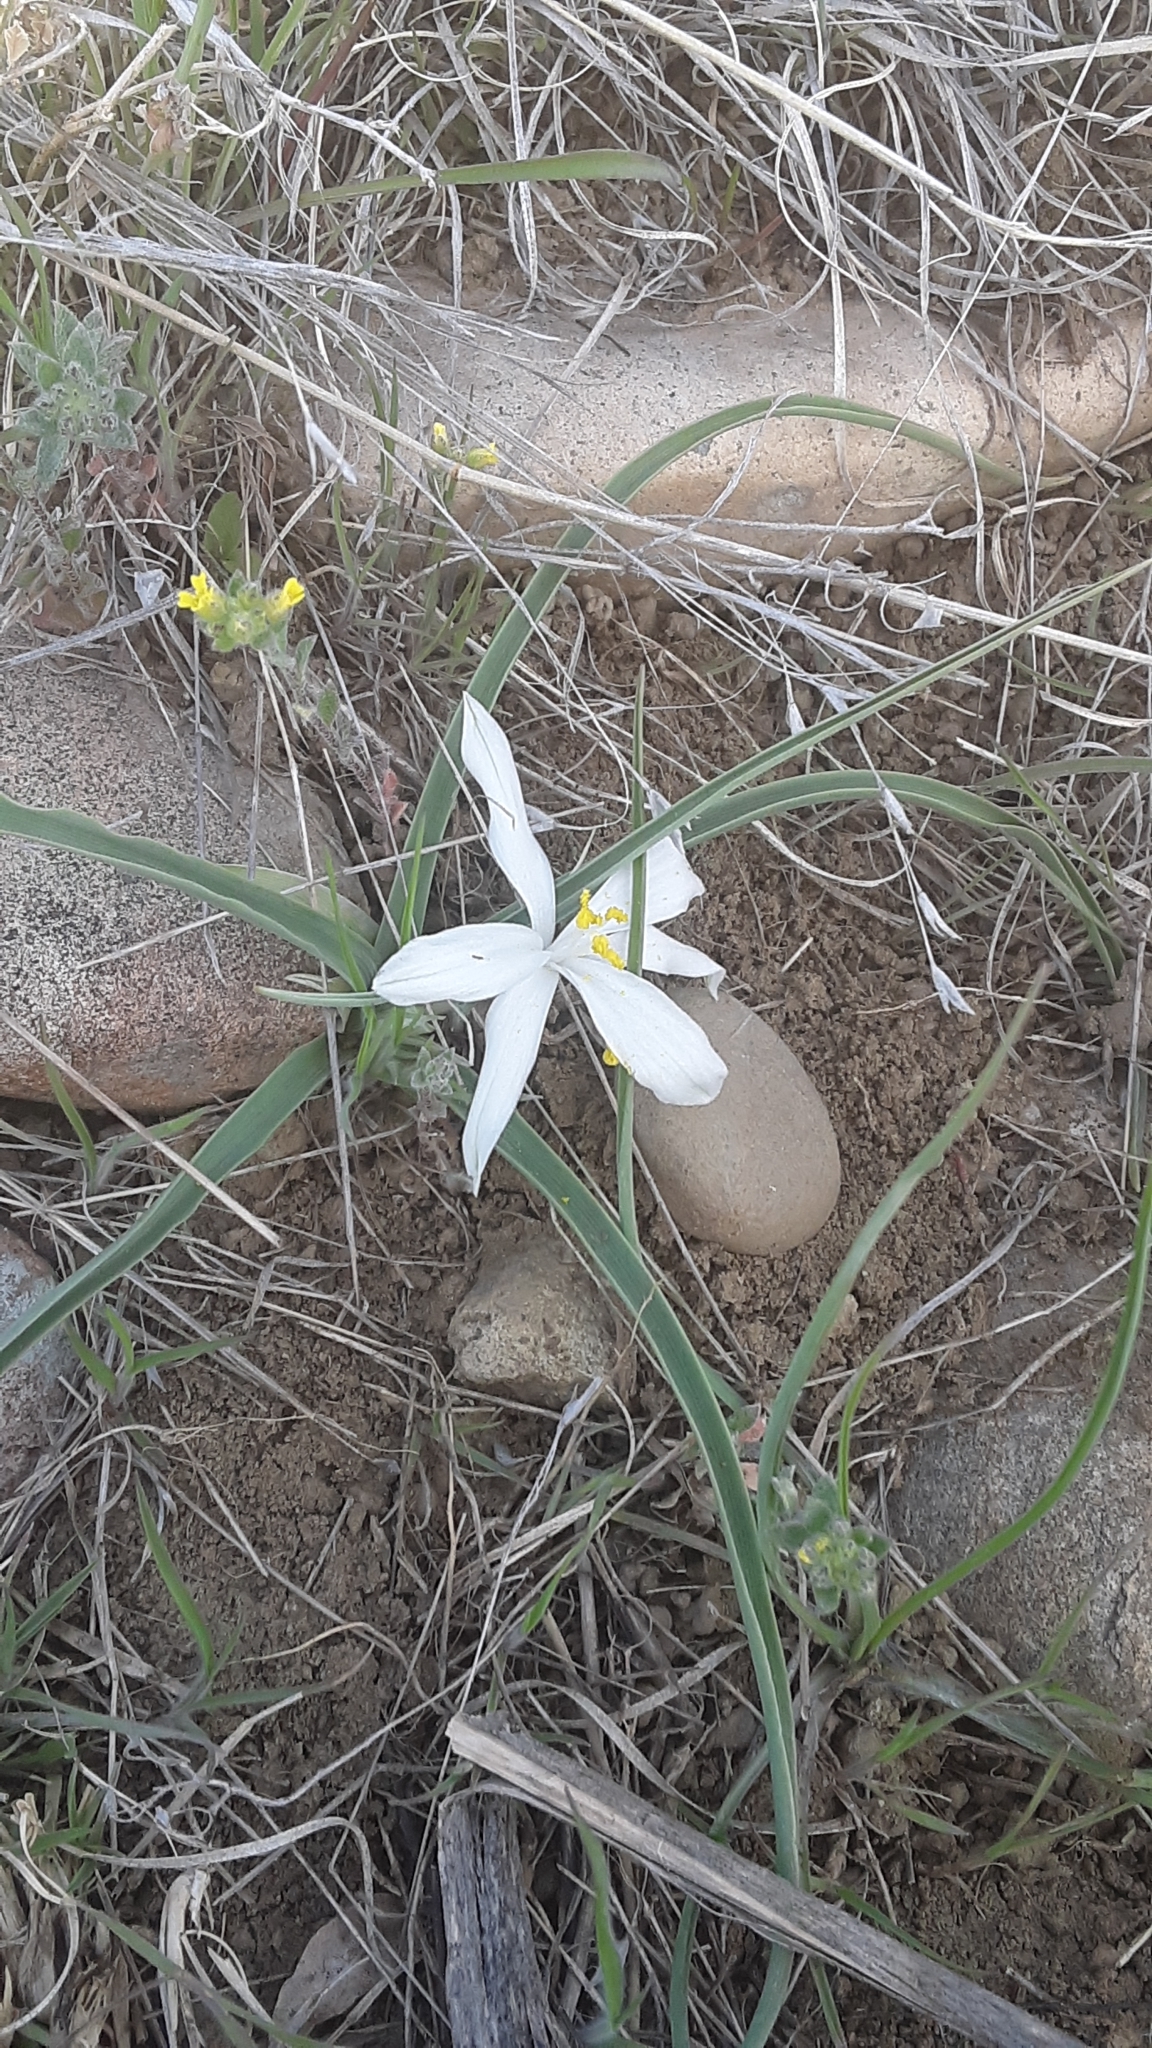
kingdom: Plantae
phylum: Tracheophyta
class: Liliopsida
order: Asparagales
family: Asparagaceae
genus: Leucocrinum
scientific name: Leucocrinum montanum
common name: Mountain-lily
